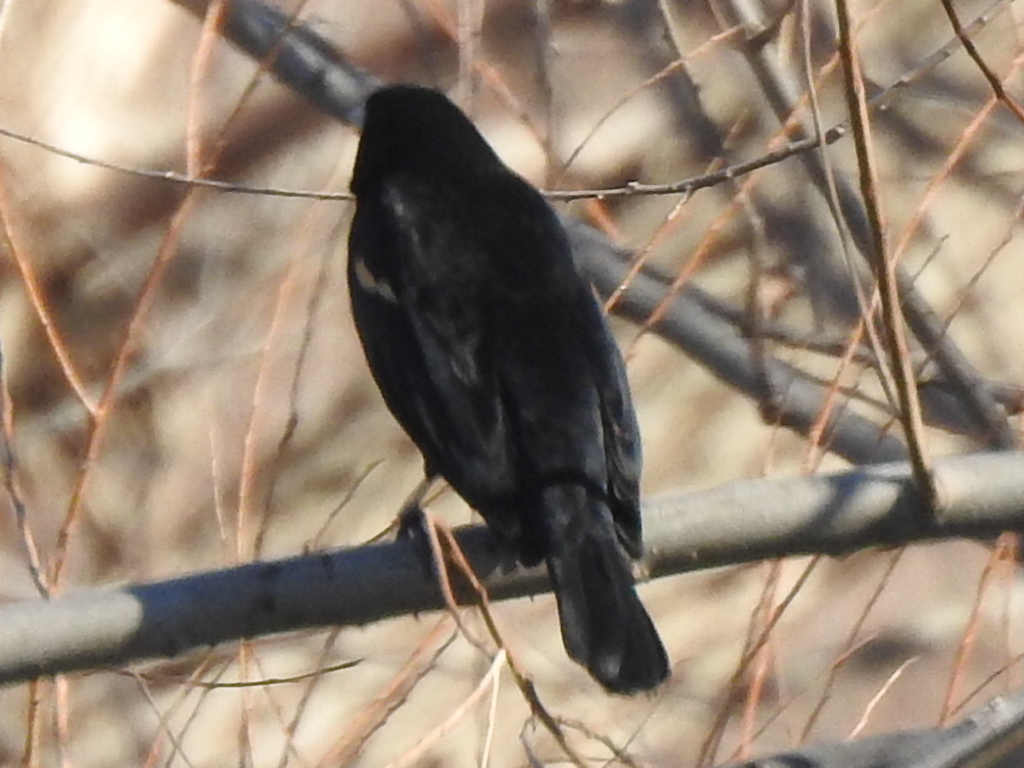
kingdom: Animalia
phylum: Chordata
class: Aves
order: Passeriformes
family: Icteridae
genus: Agelaius
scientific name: Agelaius phoeniceus
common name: Red-winged blackbird
